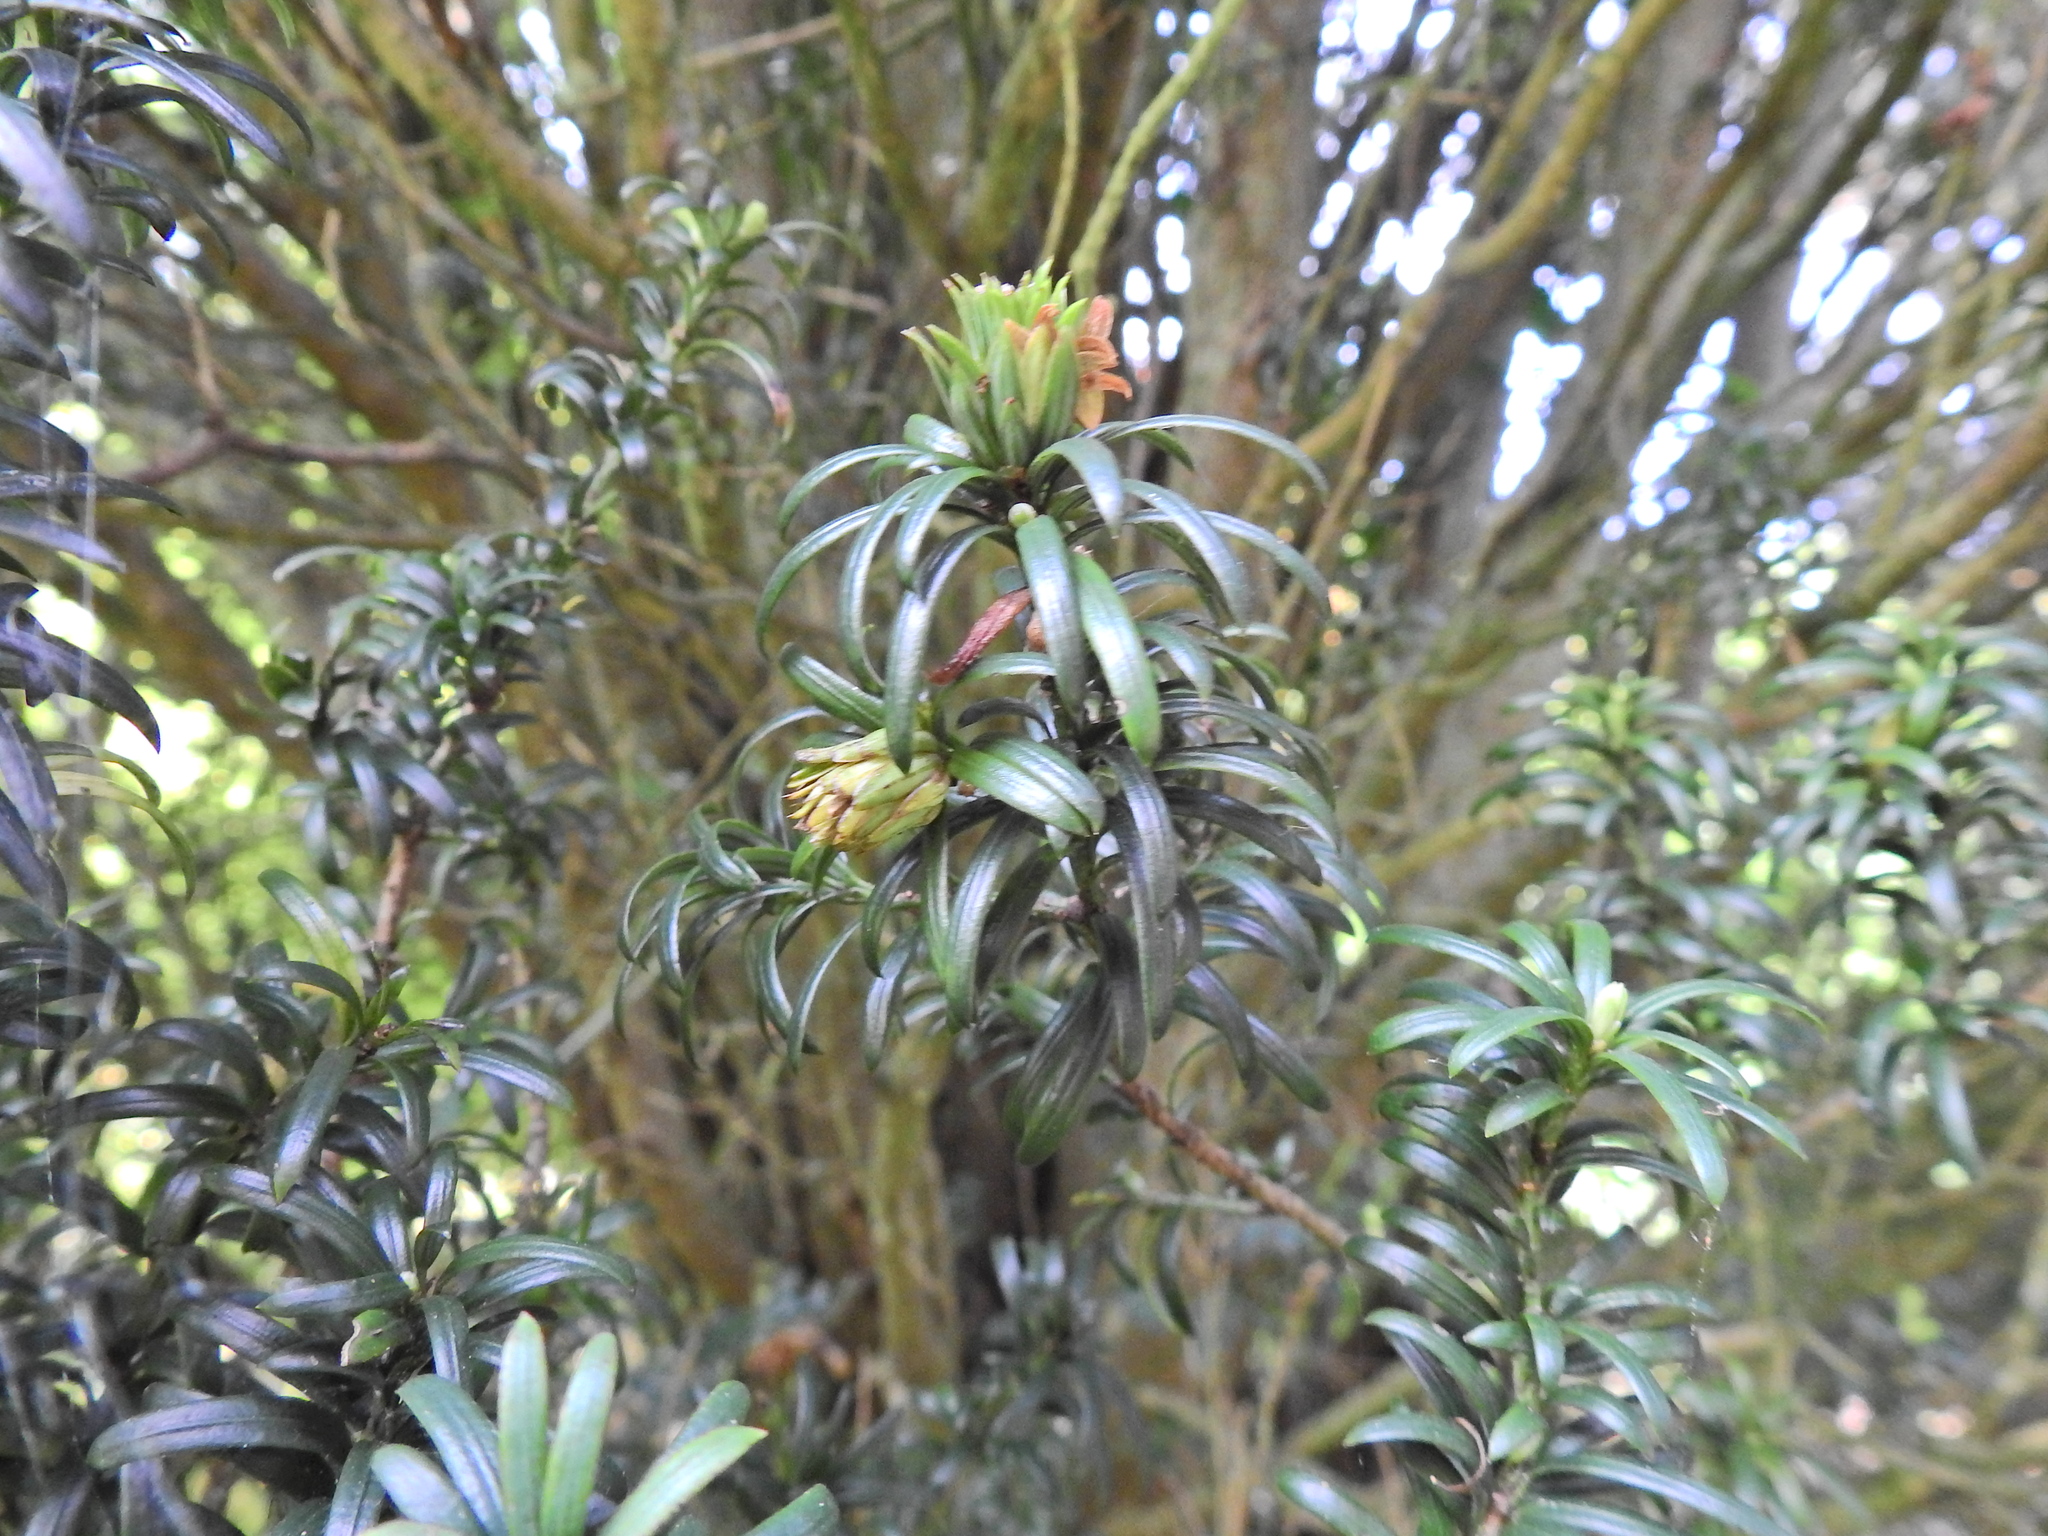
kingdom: Animalia
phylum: Arthropoda
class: Insecta
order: Diptera
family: Cecidomyiidae
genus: Taxomyia
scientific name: Taxomyia taxi
